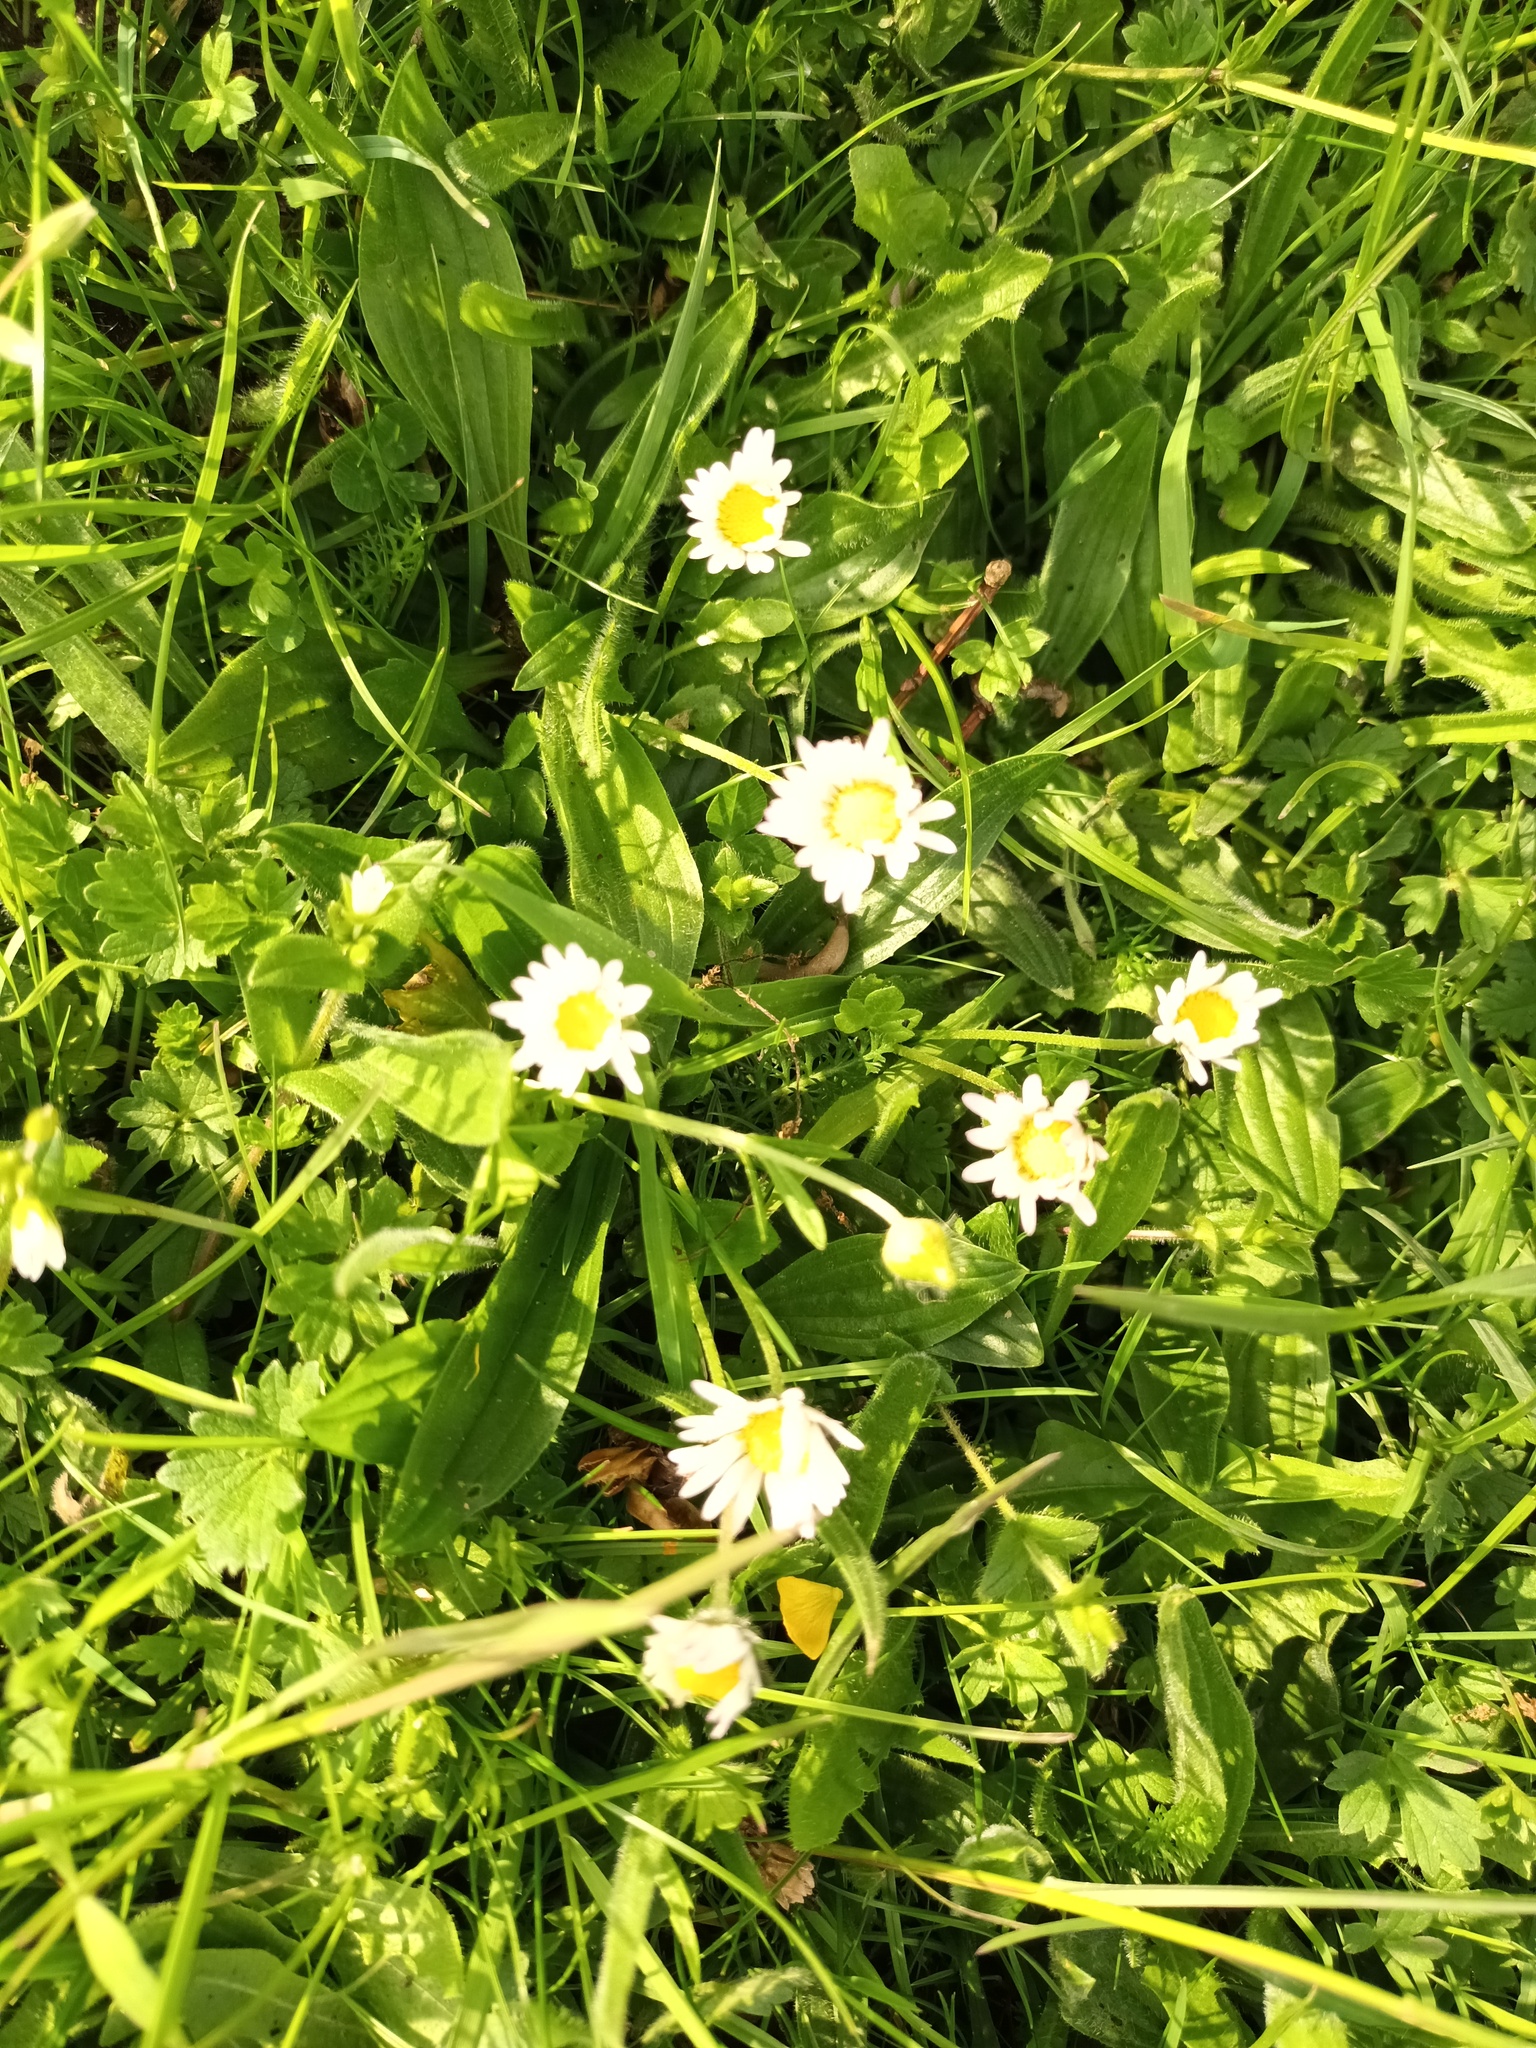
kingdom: Plantae
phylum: Tracheophyta
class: Magnoliopsida
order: Asterales
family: Asteraceae
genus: Bellis
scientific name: Bellis perennis
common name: Lawndaisy
